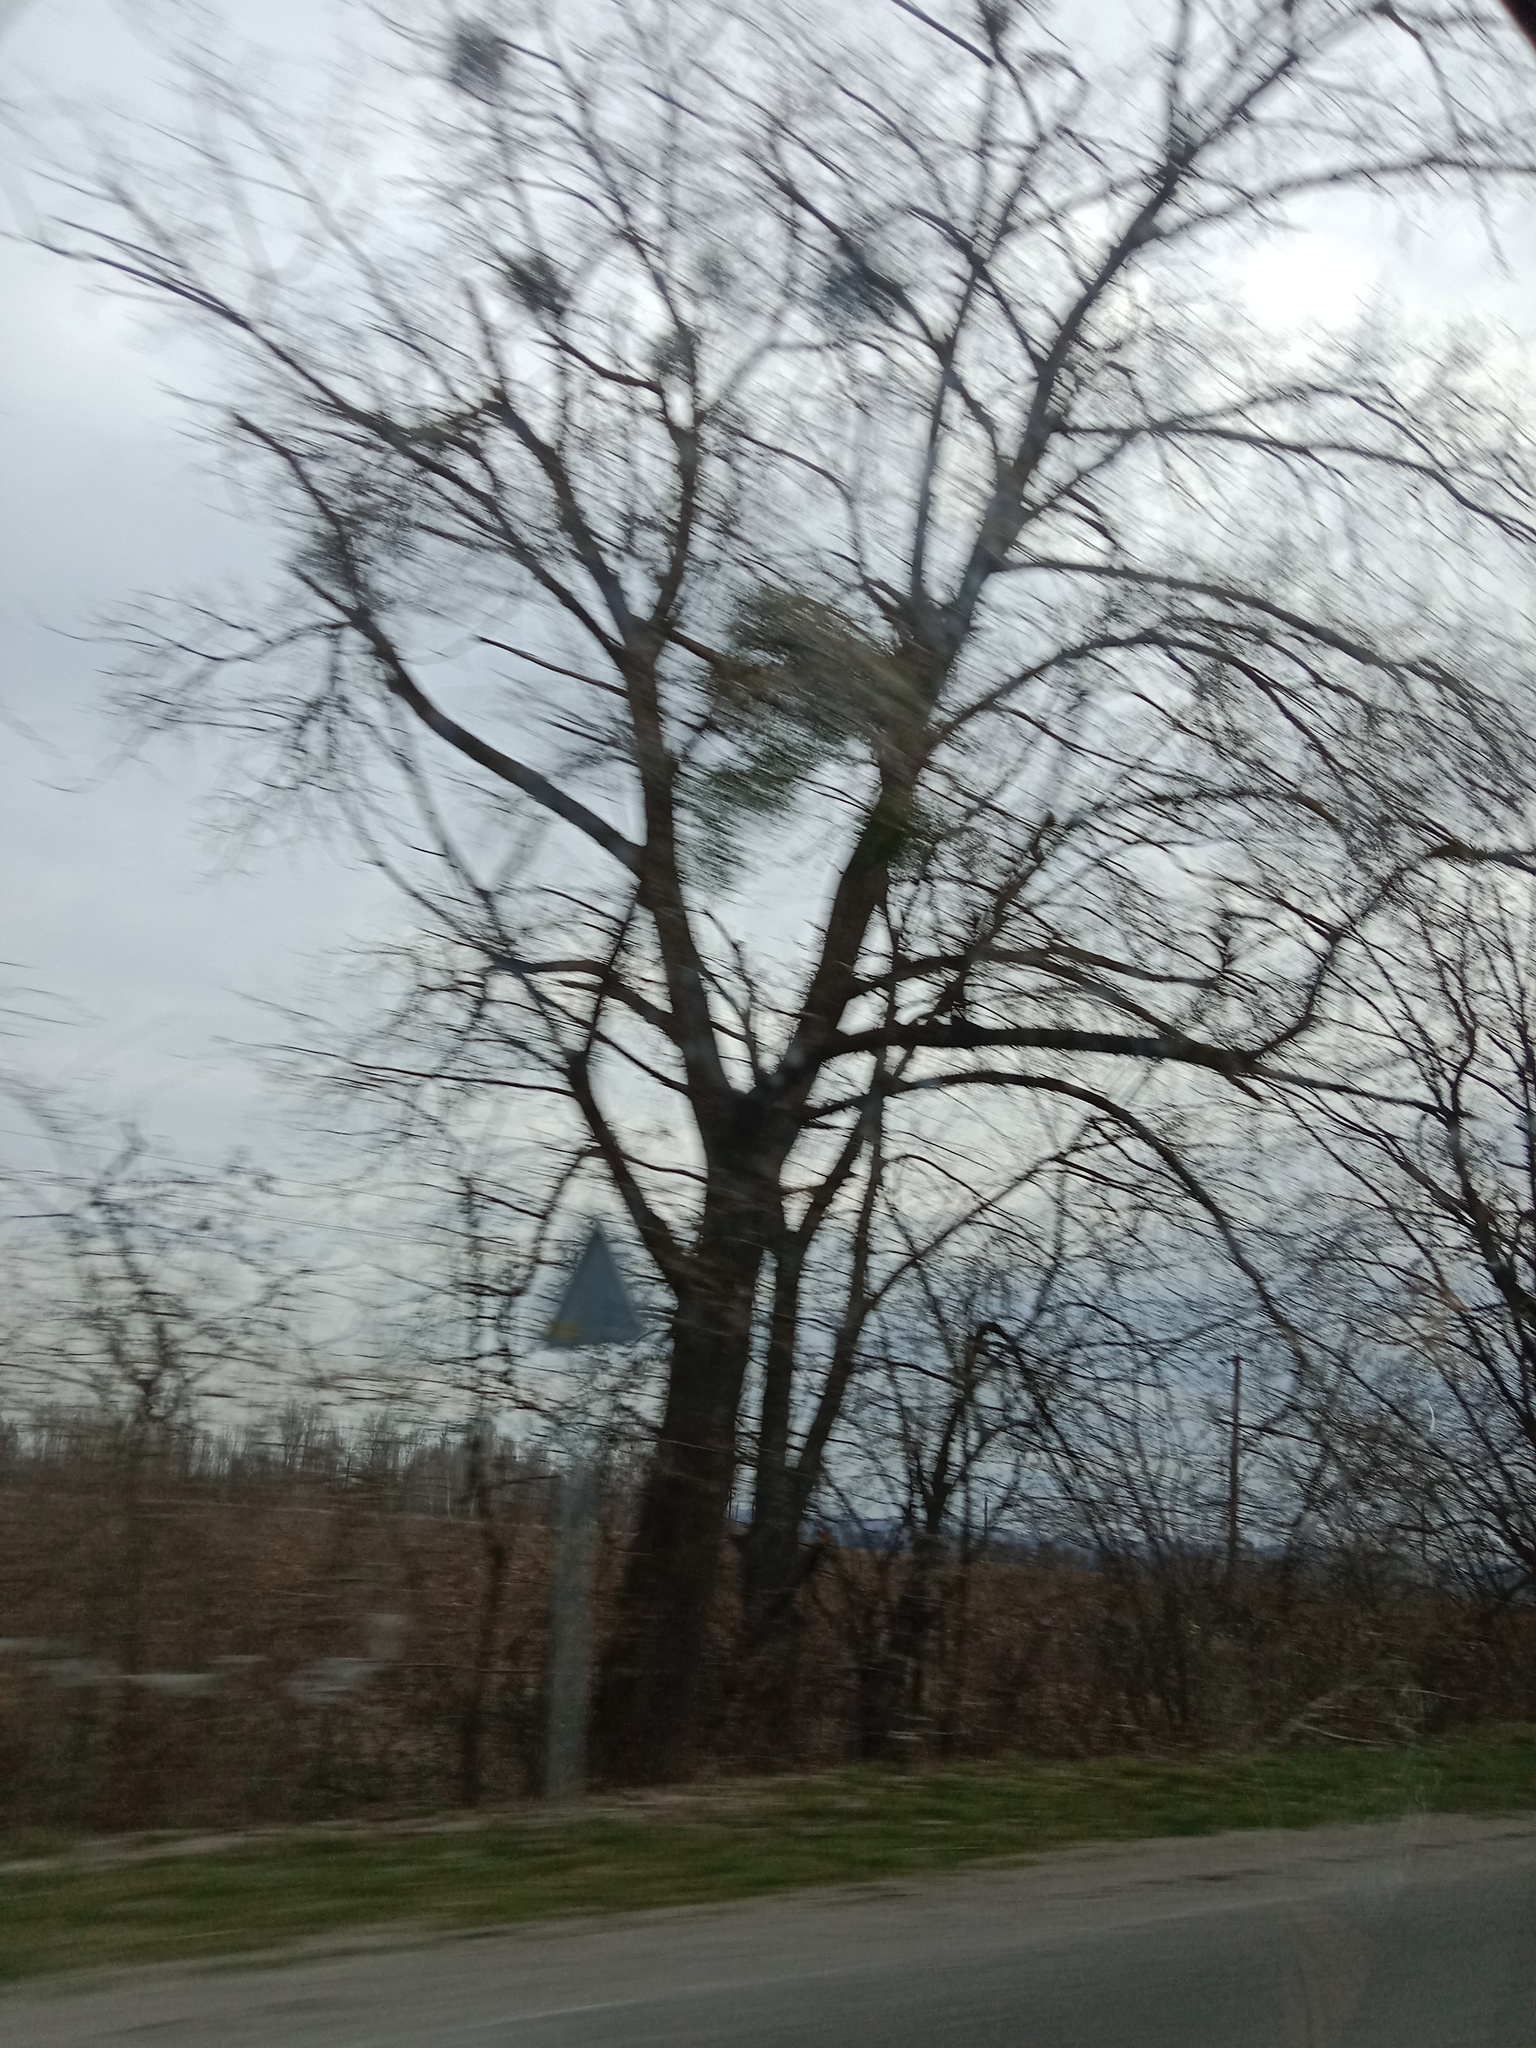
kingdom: Plantae
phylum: Tracheophyta
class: Magnoliopsida
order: Santalales
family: Viscaceae
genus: Viscum
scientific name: Viscum album
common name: Mistletoe
